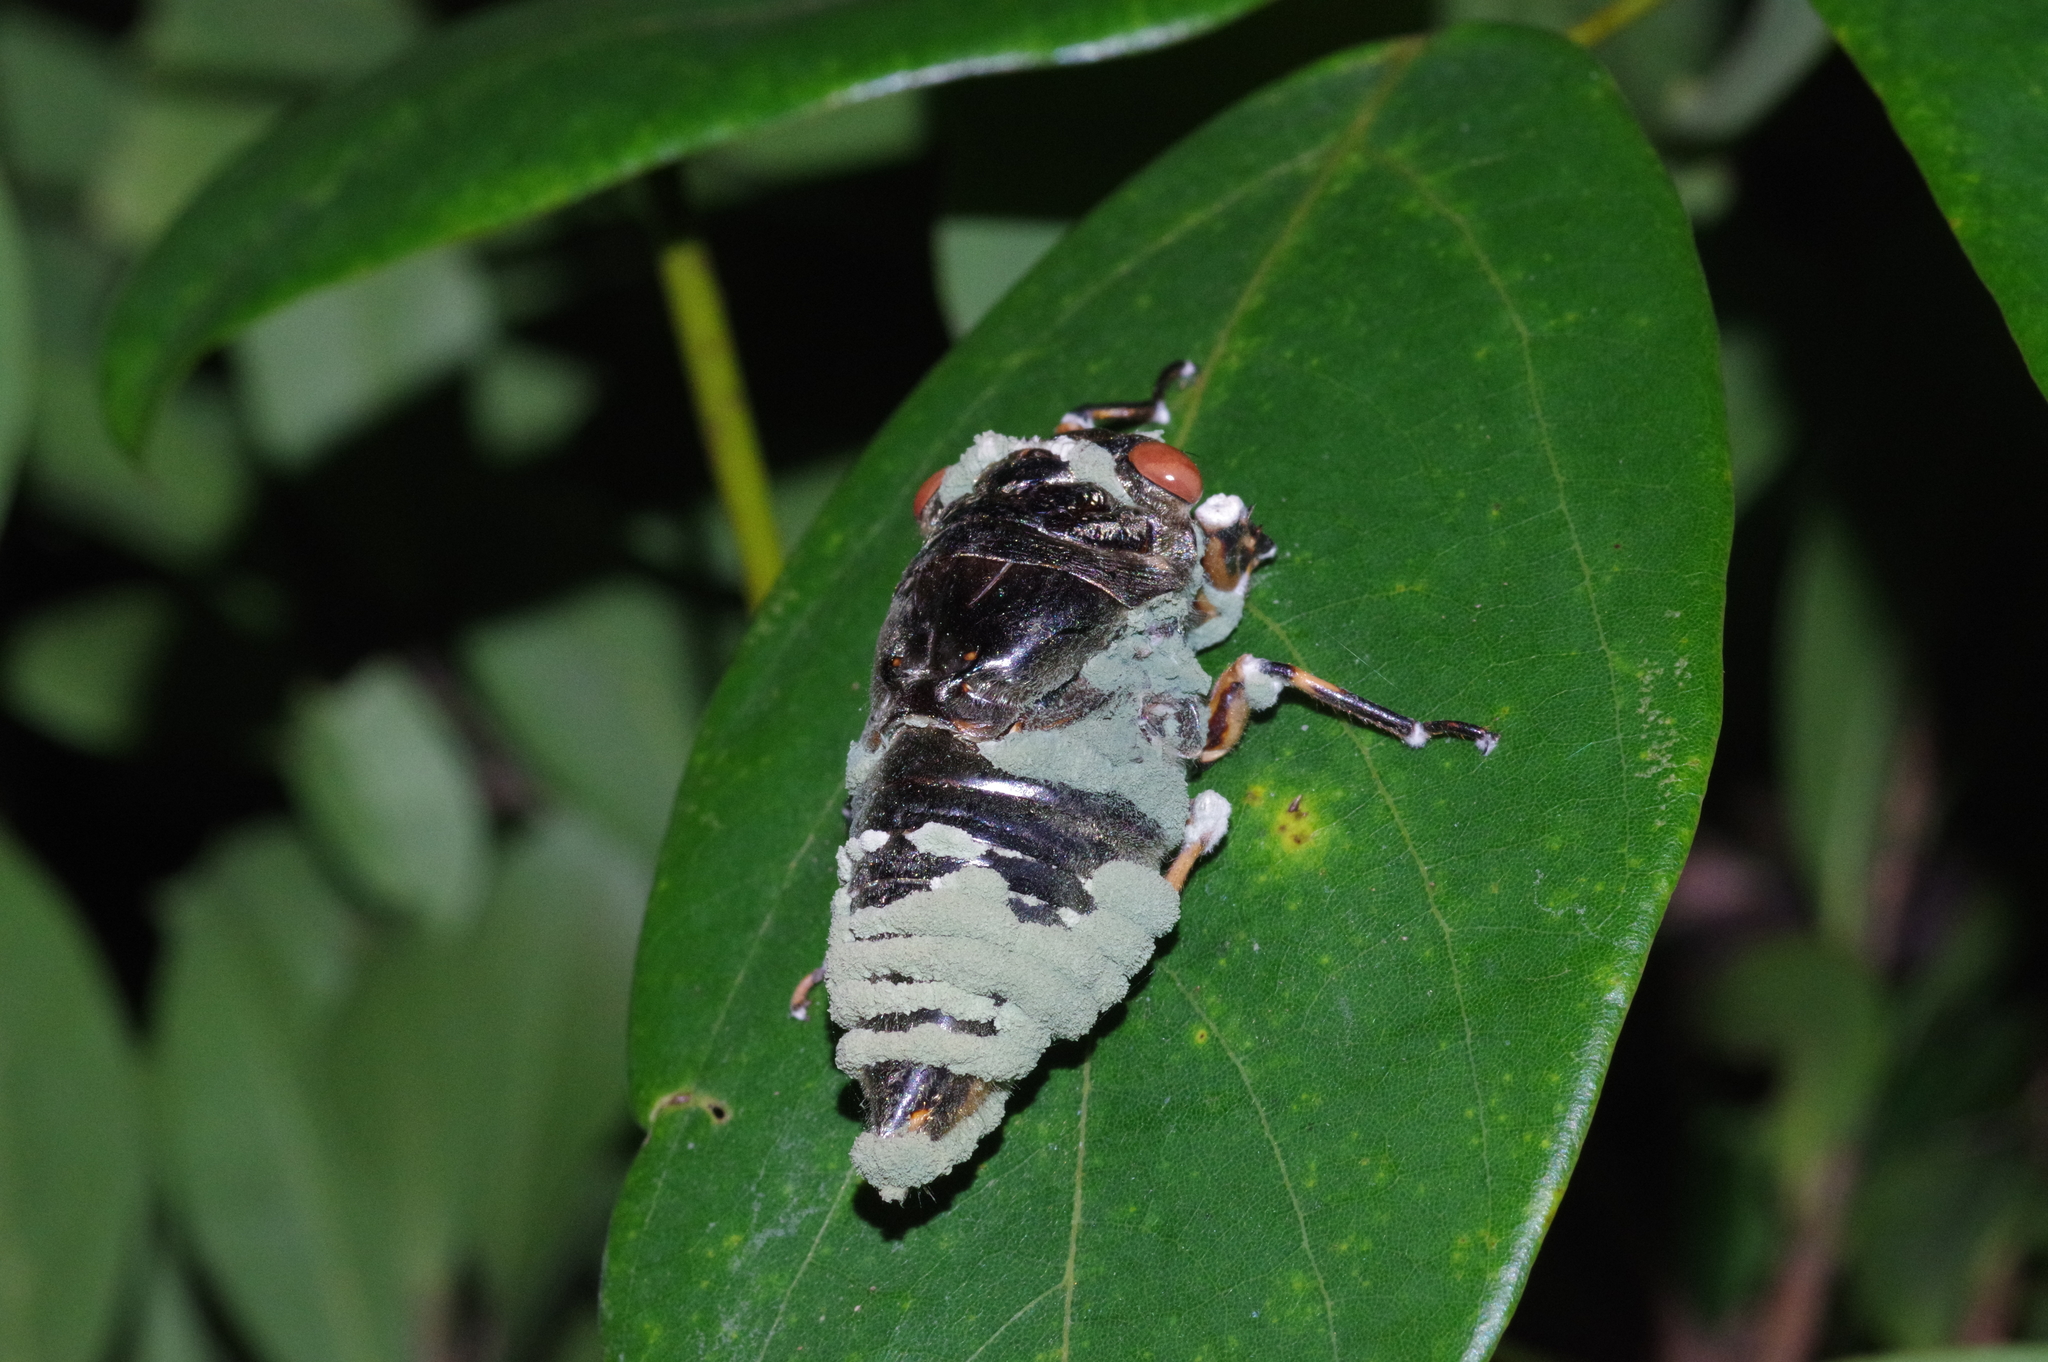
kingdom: Animalia
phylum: Arthropoda
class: Insecta
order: Hemiptera
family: Cicadidae
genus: Cryptotympana
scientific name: Cryptotympana facialis
